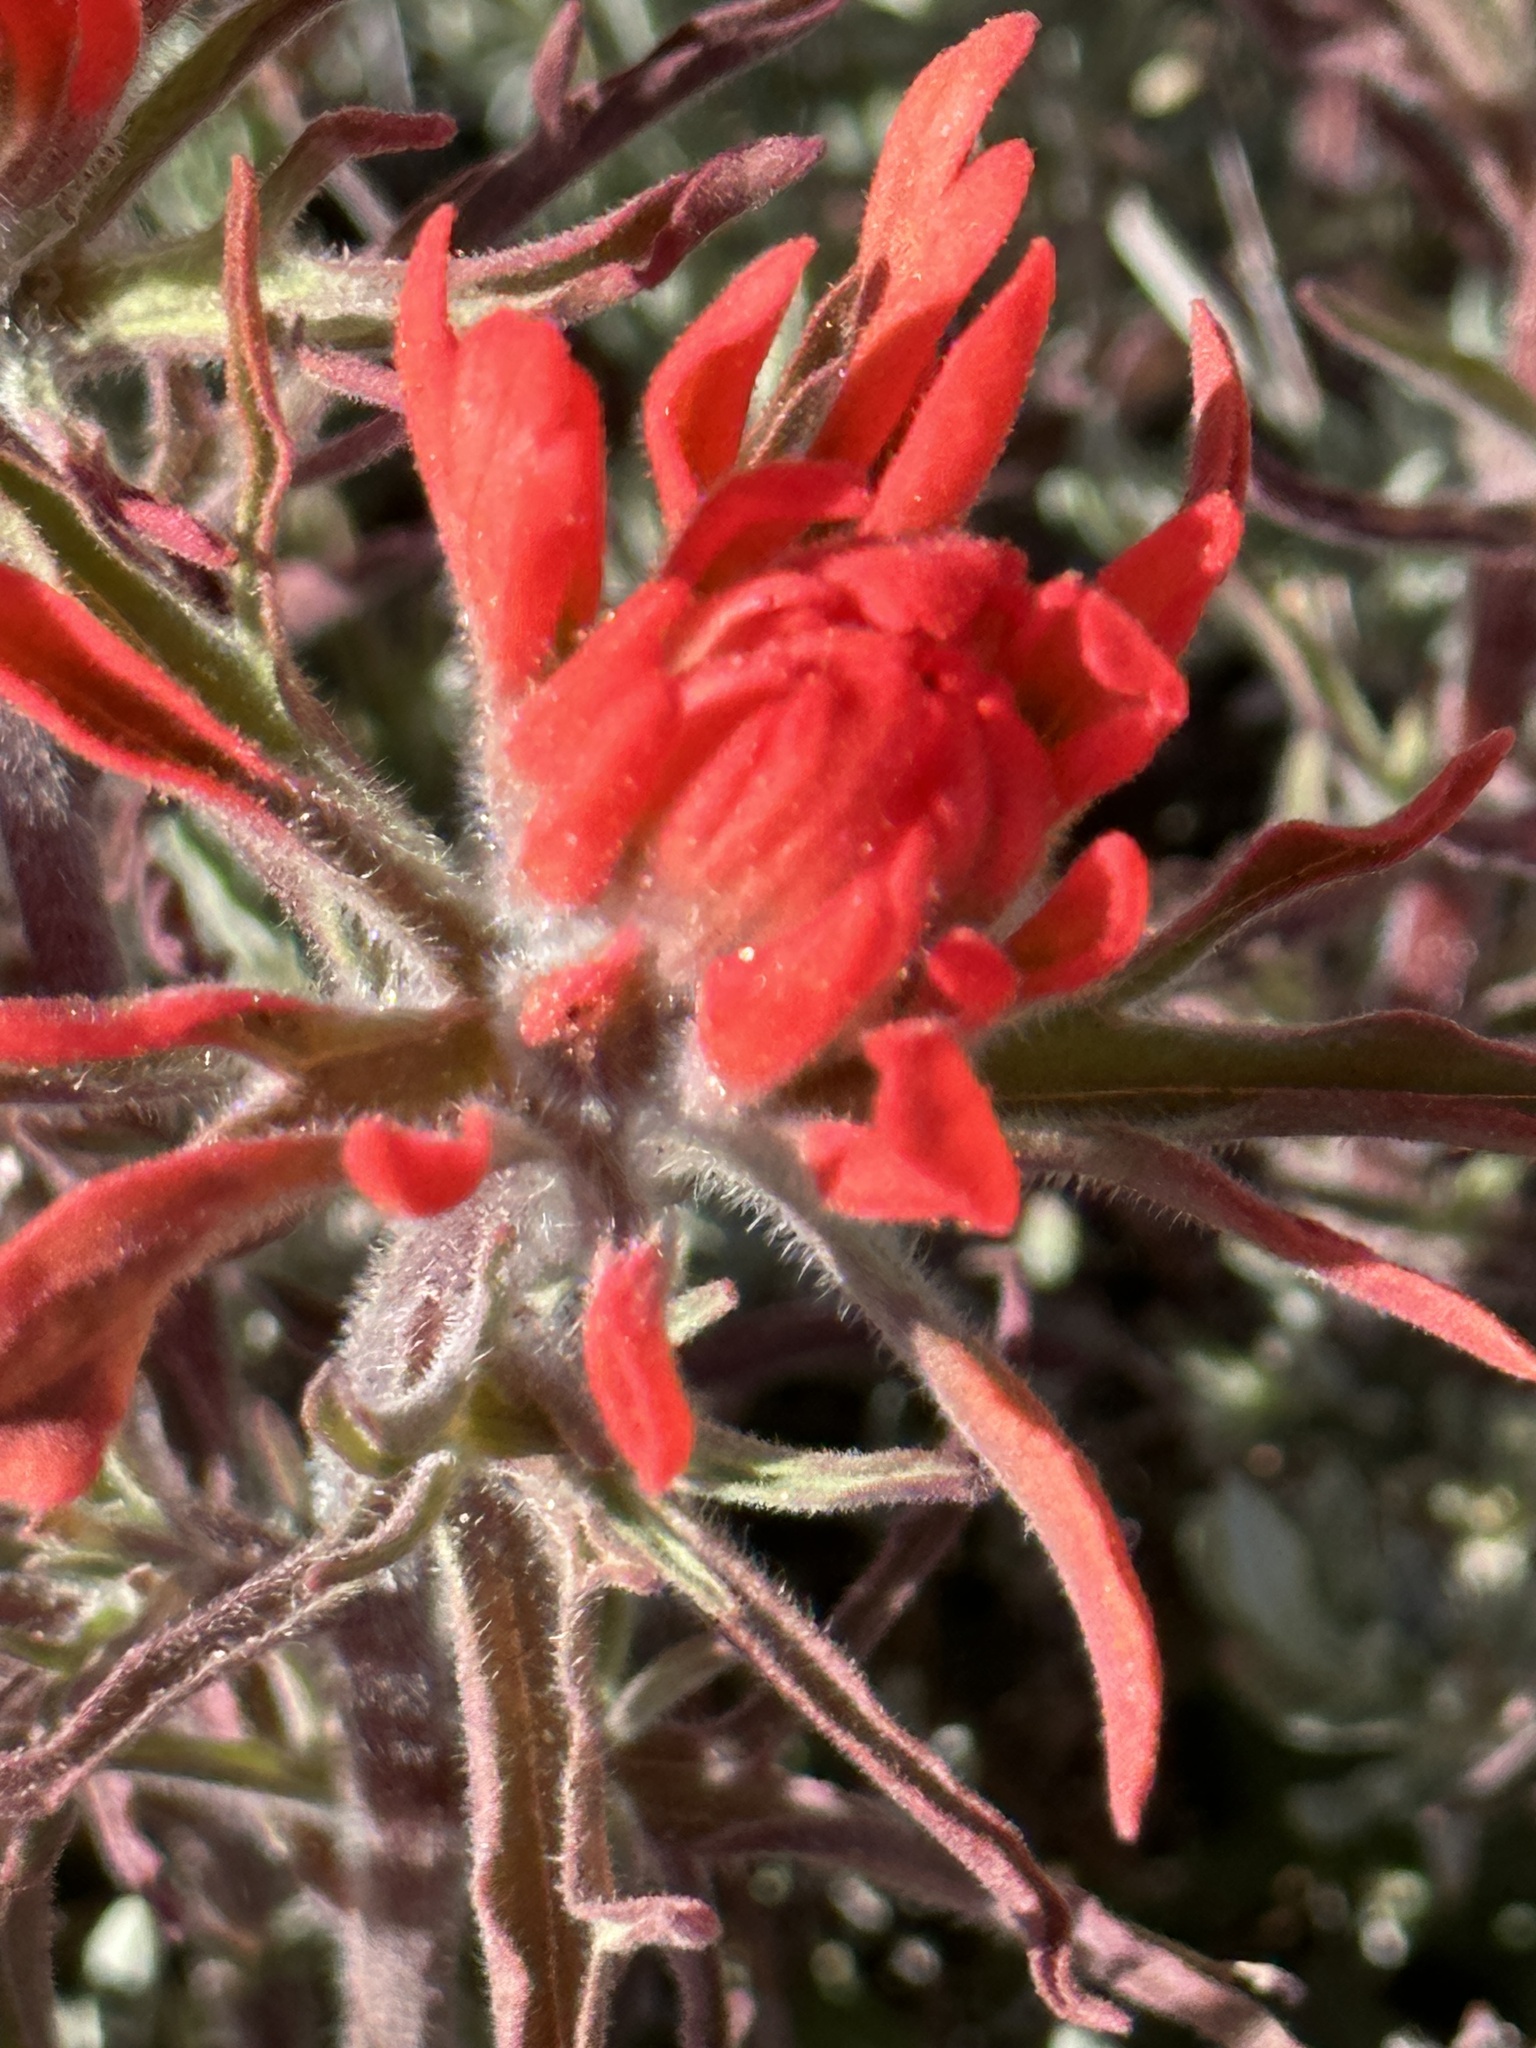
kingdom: Plantae
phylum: Tracheophyta
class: Magnoliopsida
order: Lamiales
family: Orobanchaceae
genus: Castilleja
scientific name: Castilleja chromosa
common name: Desert paintbrush
